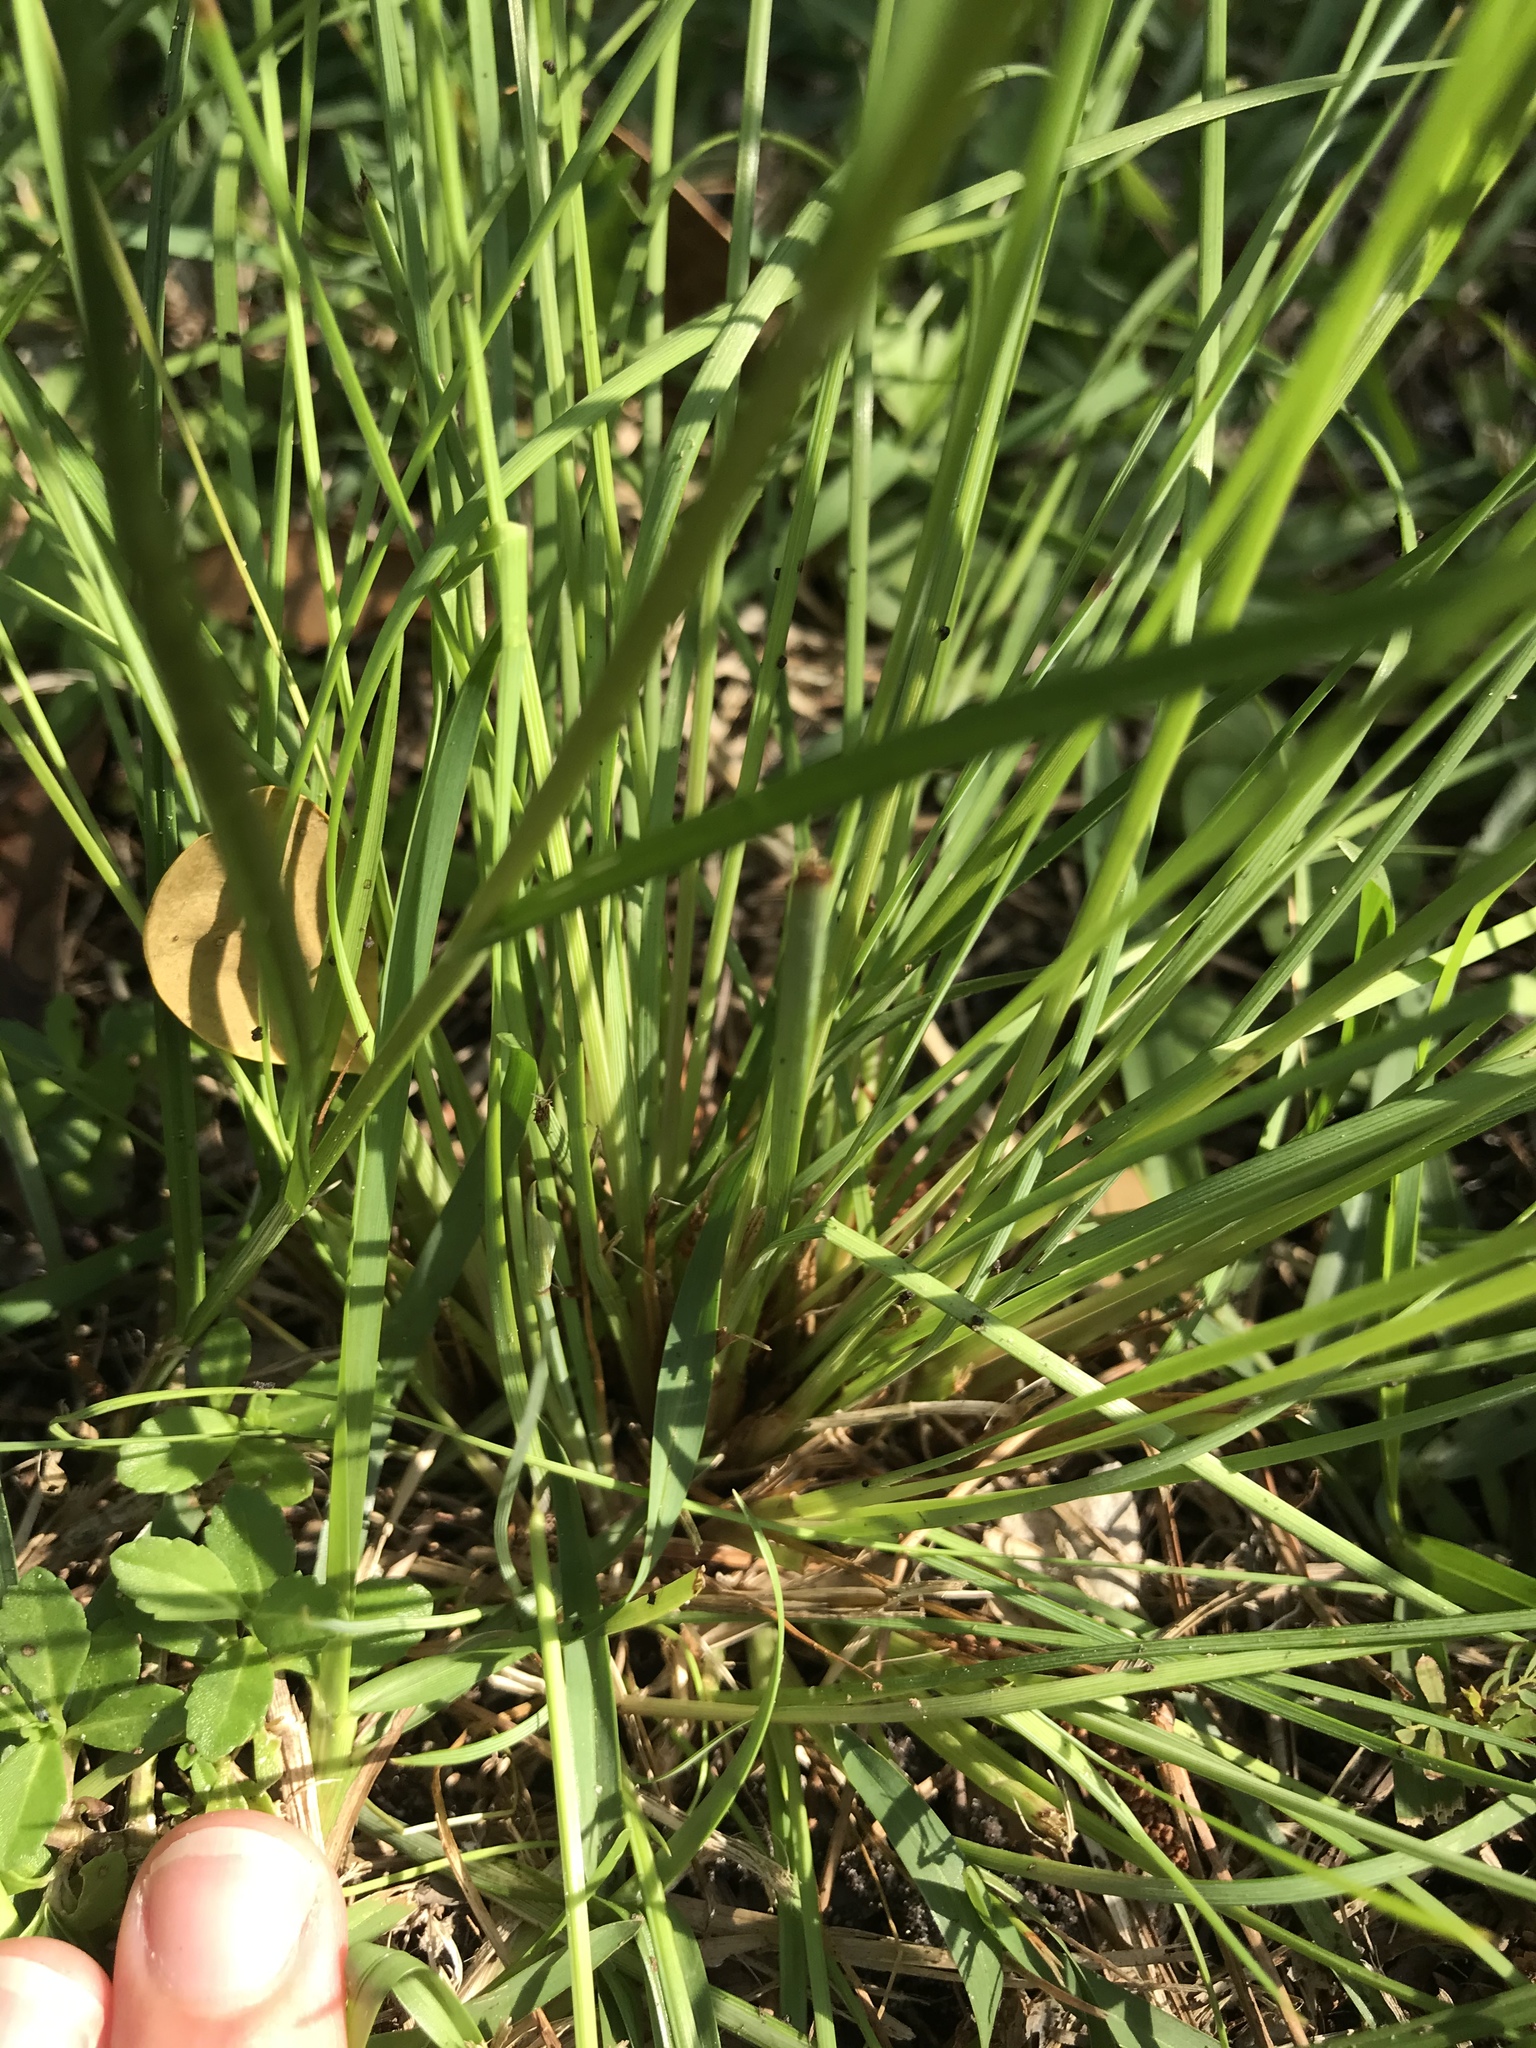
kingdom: Plantae
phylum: Tracheophyta
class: Liliopsida
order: Asparagales
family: Iridaceae
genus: Sisyrinchium
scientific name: Sisyrinchium angustifolium
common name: Narrow-leaf blue-eyed-grass
